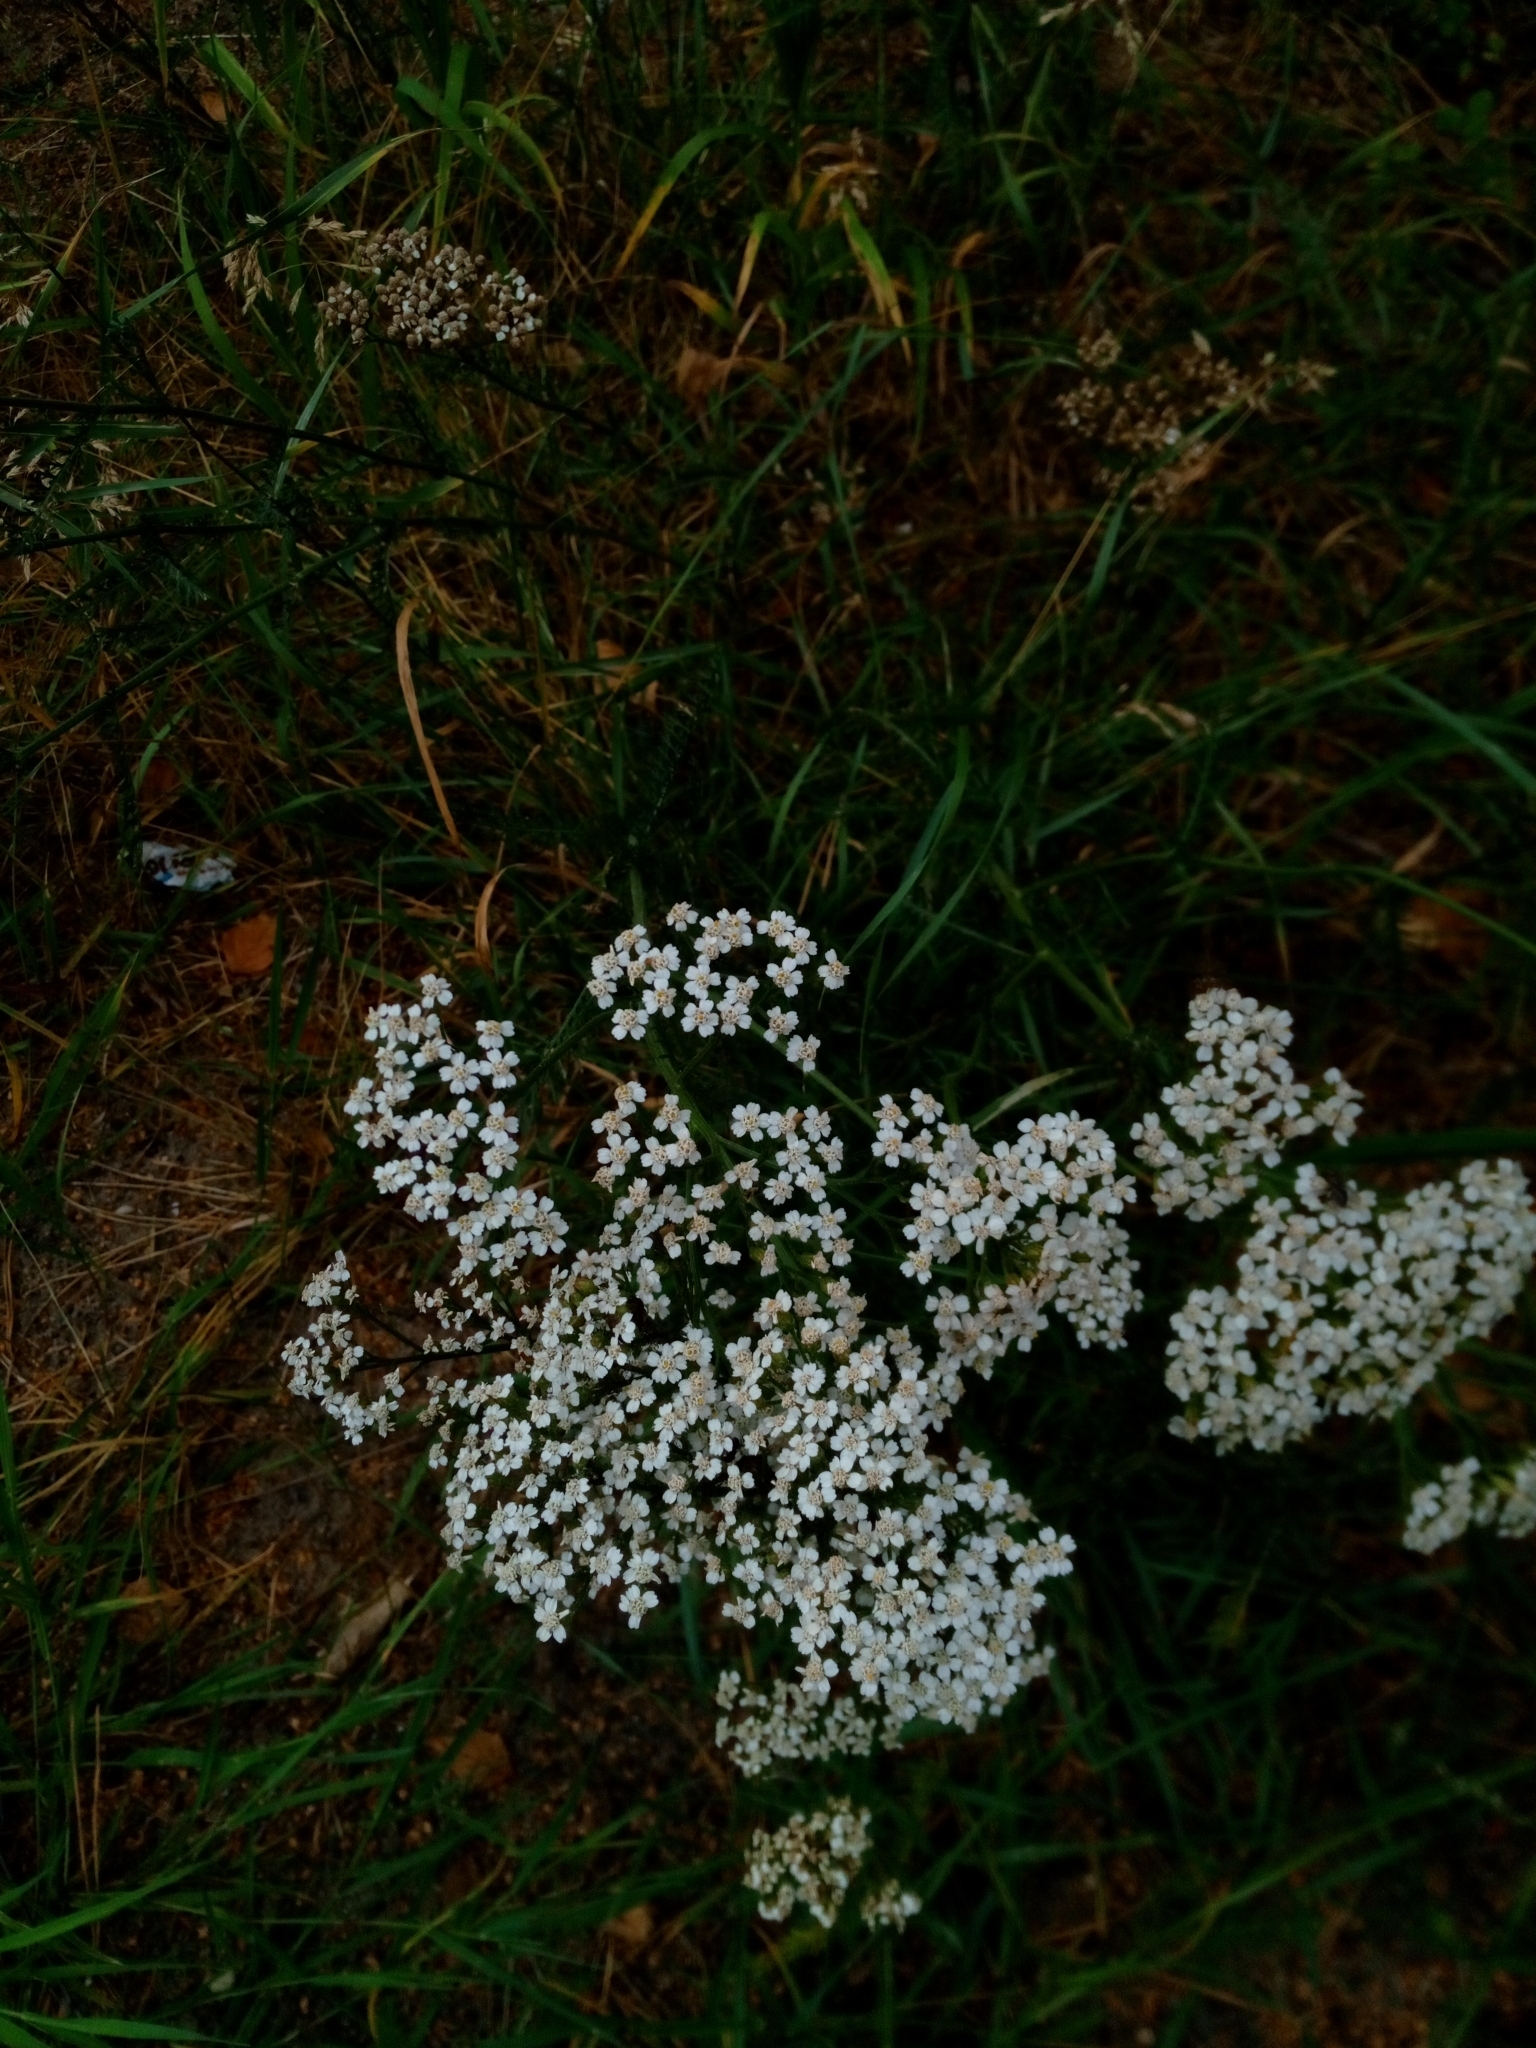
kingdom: Plantae
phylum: Tracheophyta
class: Magnoliopsida
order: Asterales
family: Asteraceae
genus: Achillea
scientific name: Achillea millefolium
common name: Yarrow
